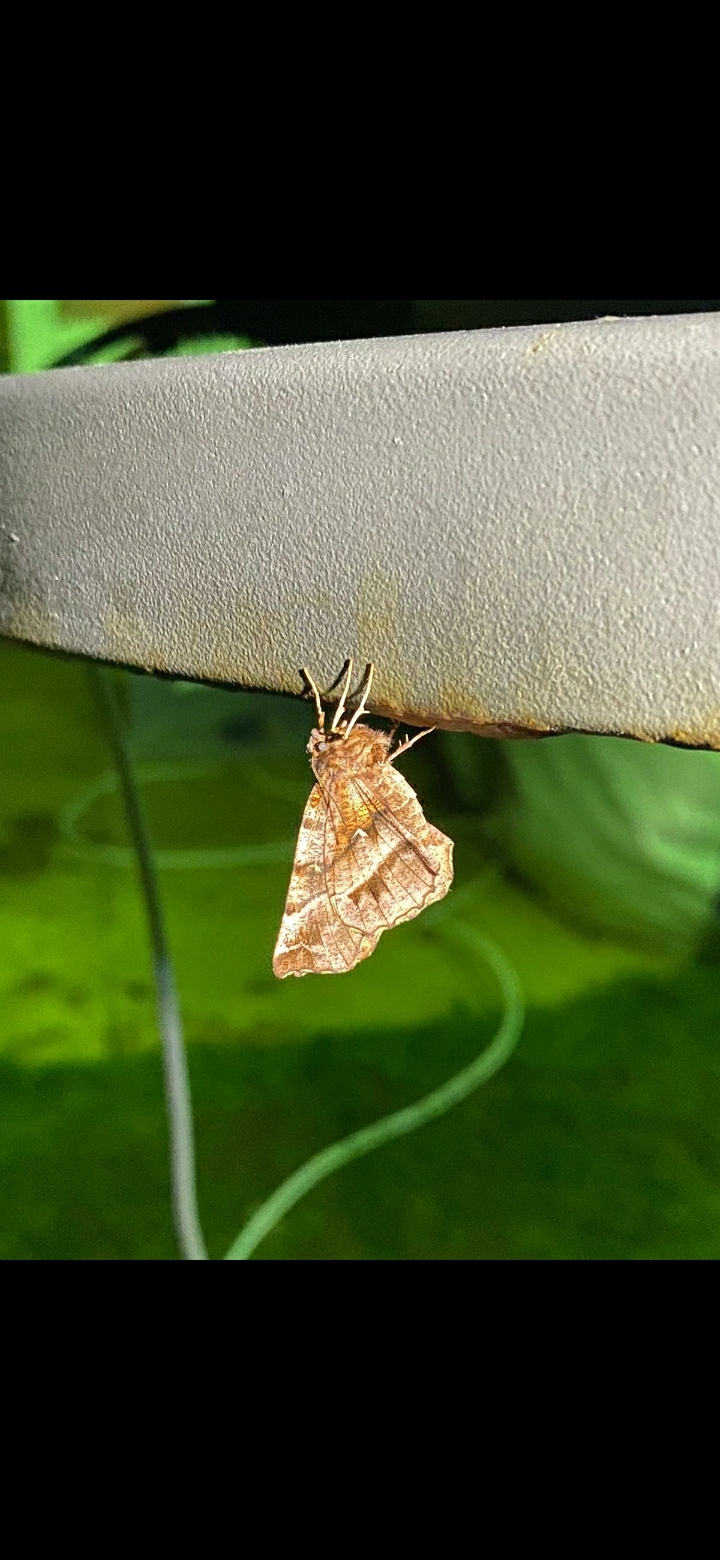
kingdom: Animalia
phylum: Arthropoda
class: Insecta
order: Lepidoptera
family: Geometridae
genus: Selenia
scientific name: Selenia dentaria
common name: Early thorn
